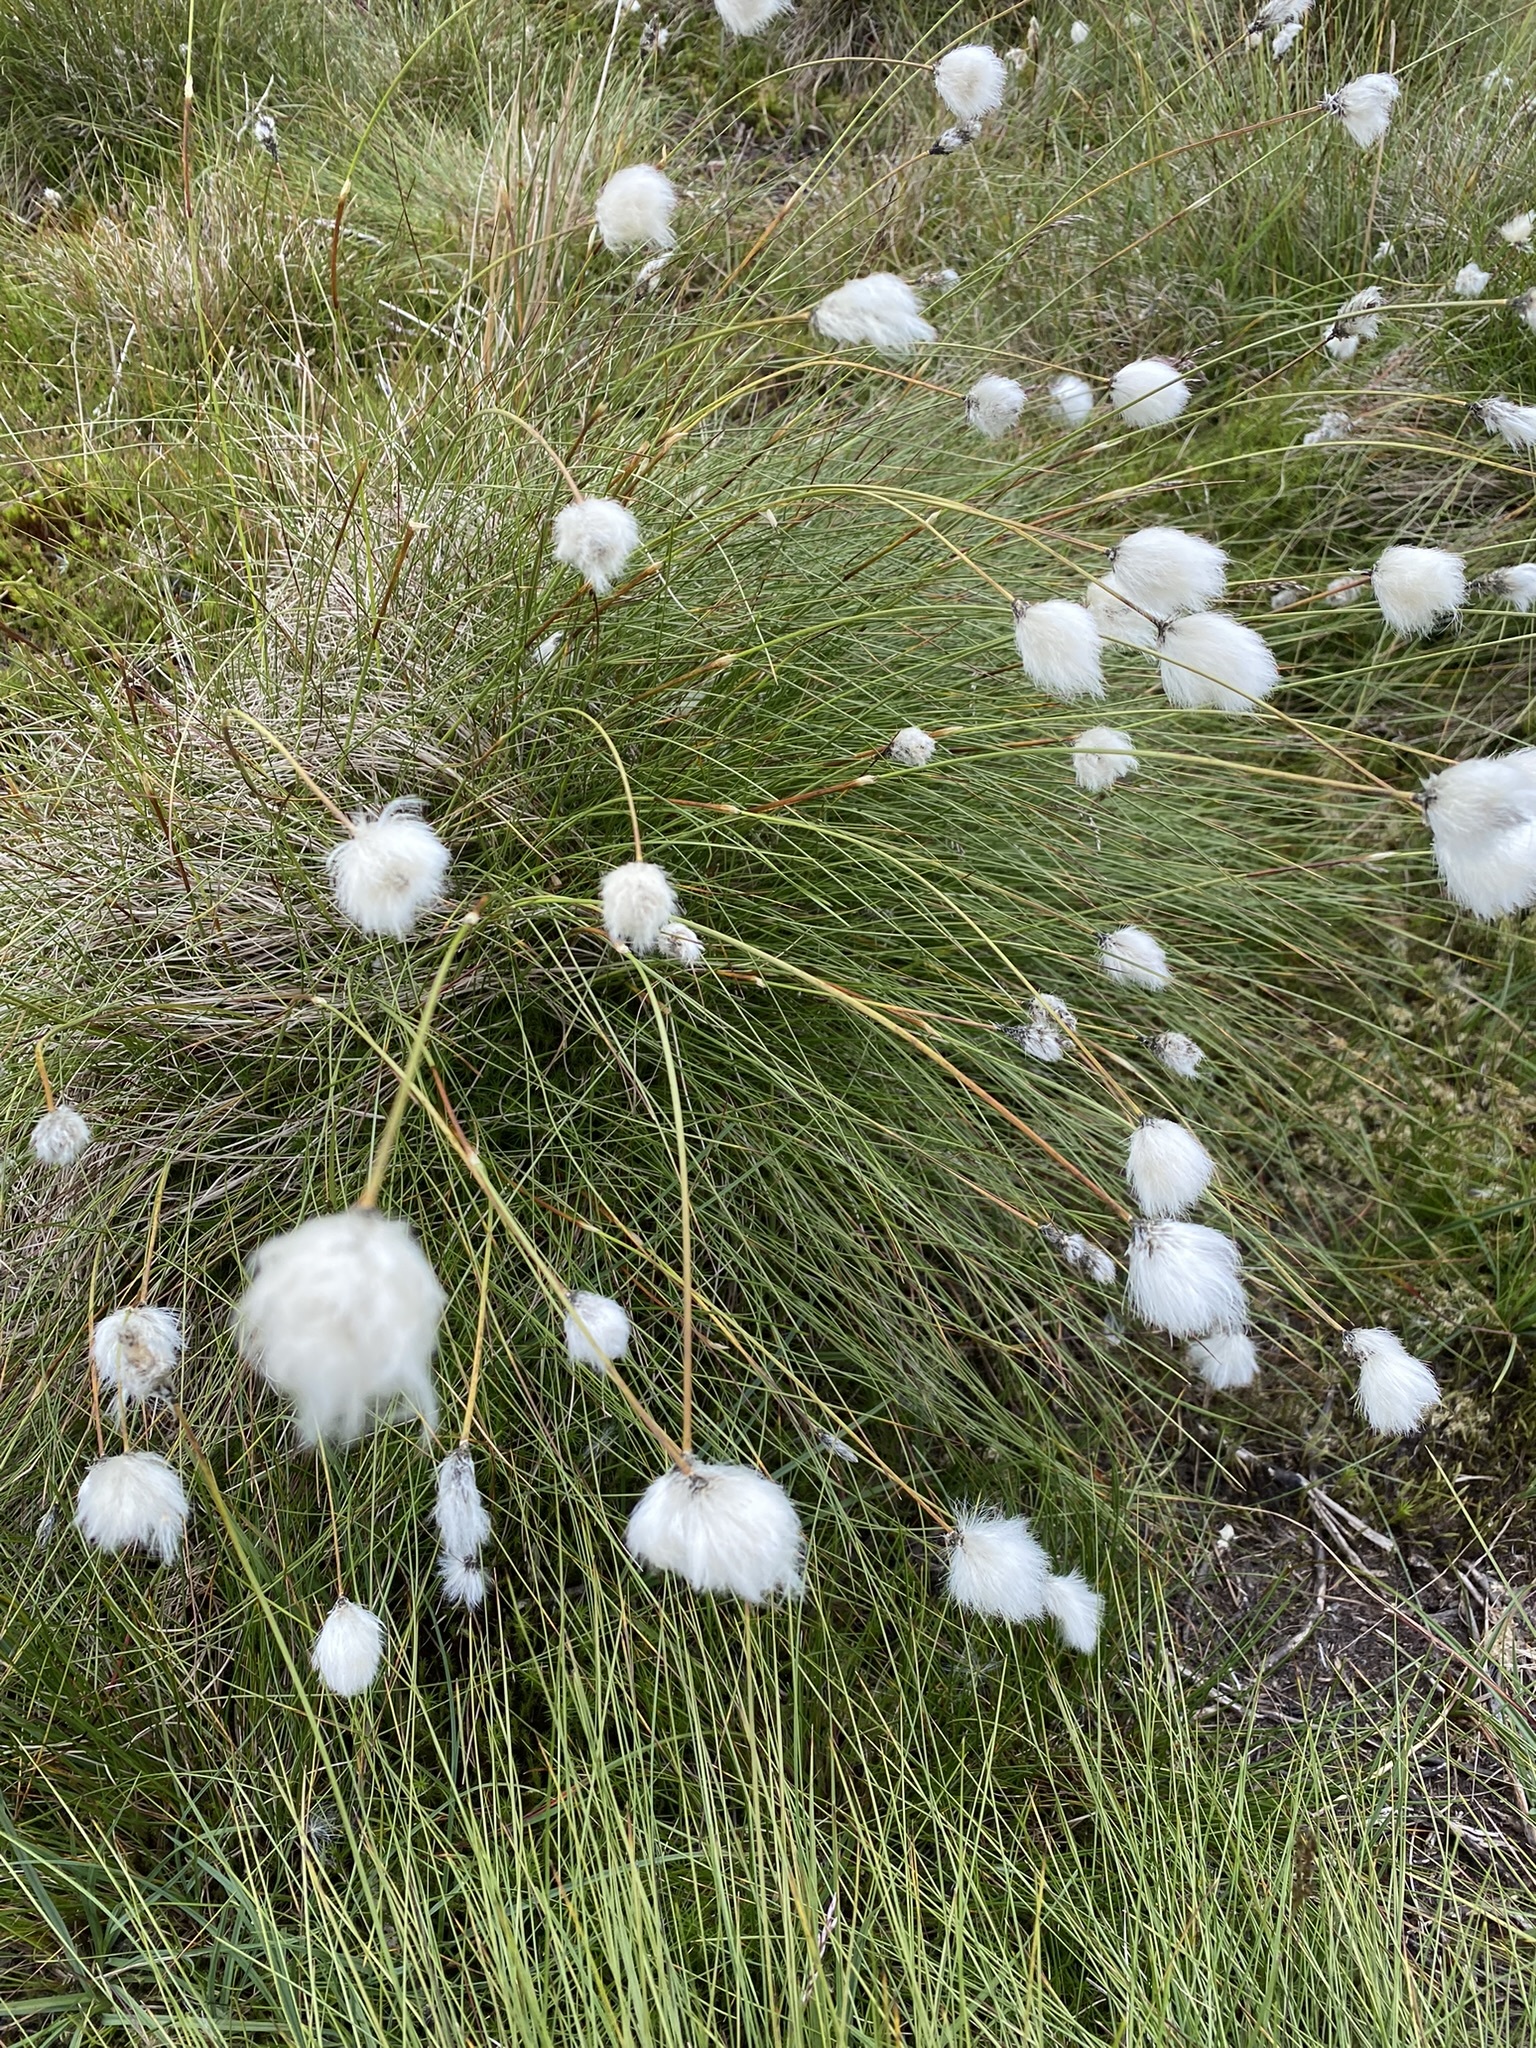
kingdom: Plantae
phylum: Tracheophyta
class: Liliopsida
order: Poales
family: Cyperaceae
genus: Eriophorum
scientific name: Eriophorum vaginatum
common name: Hare's-tail cottongrass
